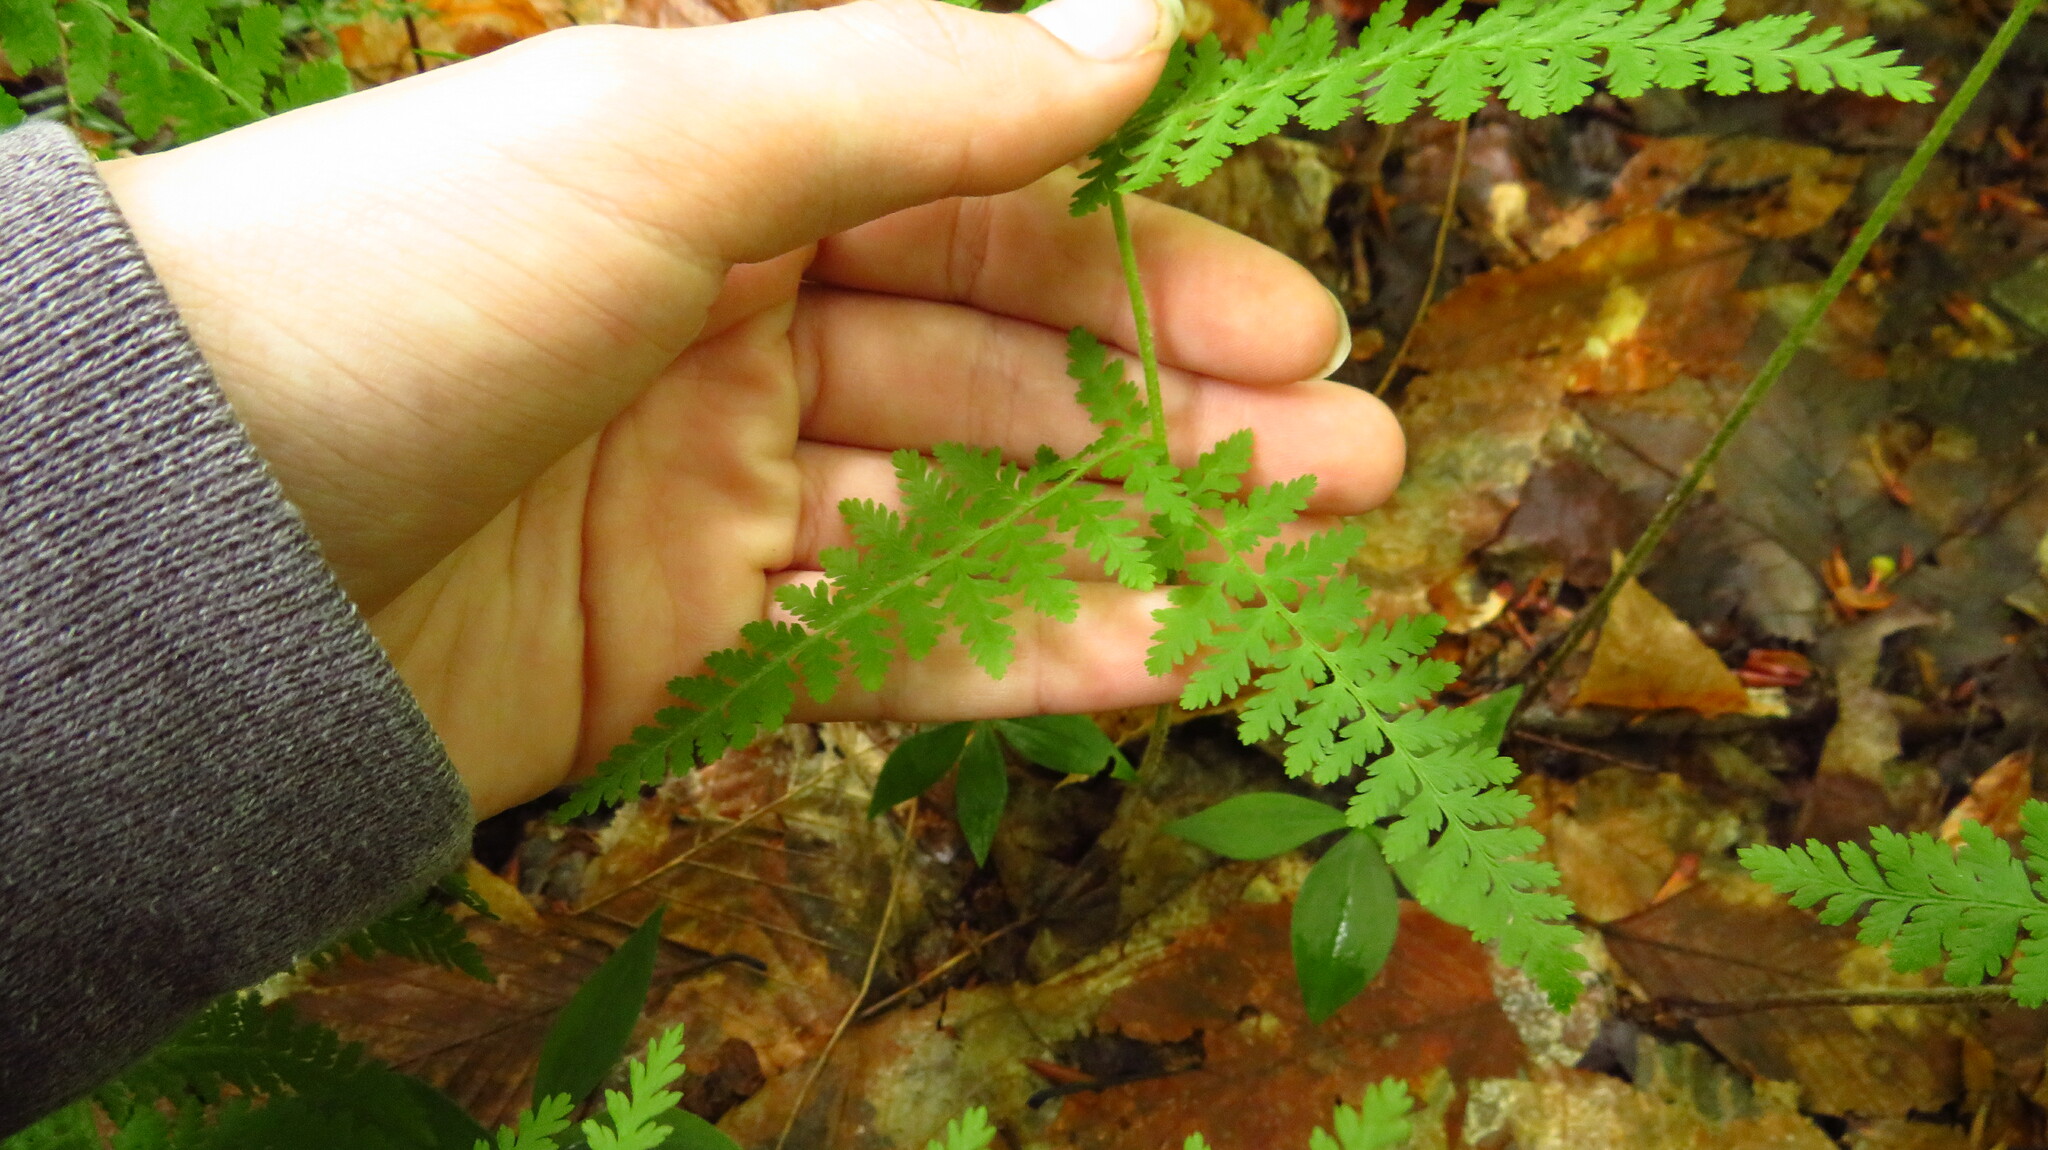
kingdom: Plantae
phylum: Tracheophyta
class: Polypodiopsida
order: Polypodiales
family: Dennstaedtiaceae
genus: Sitobolium
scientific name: Sitobolium punctilobum
